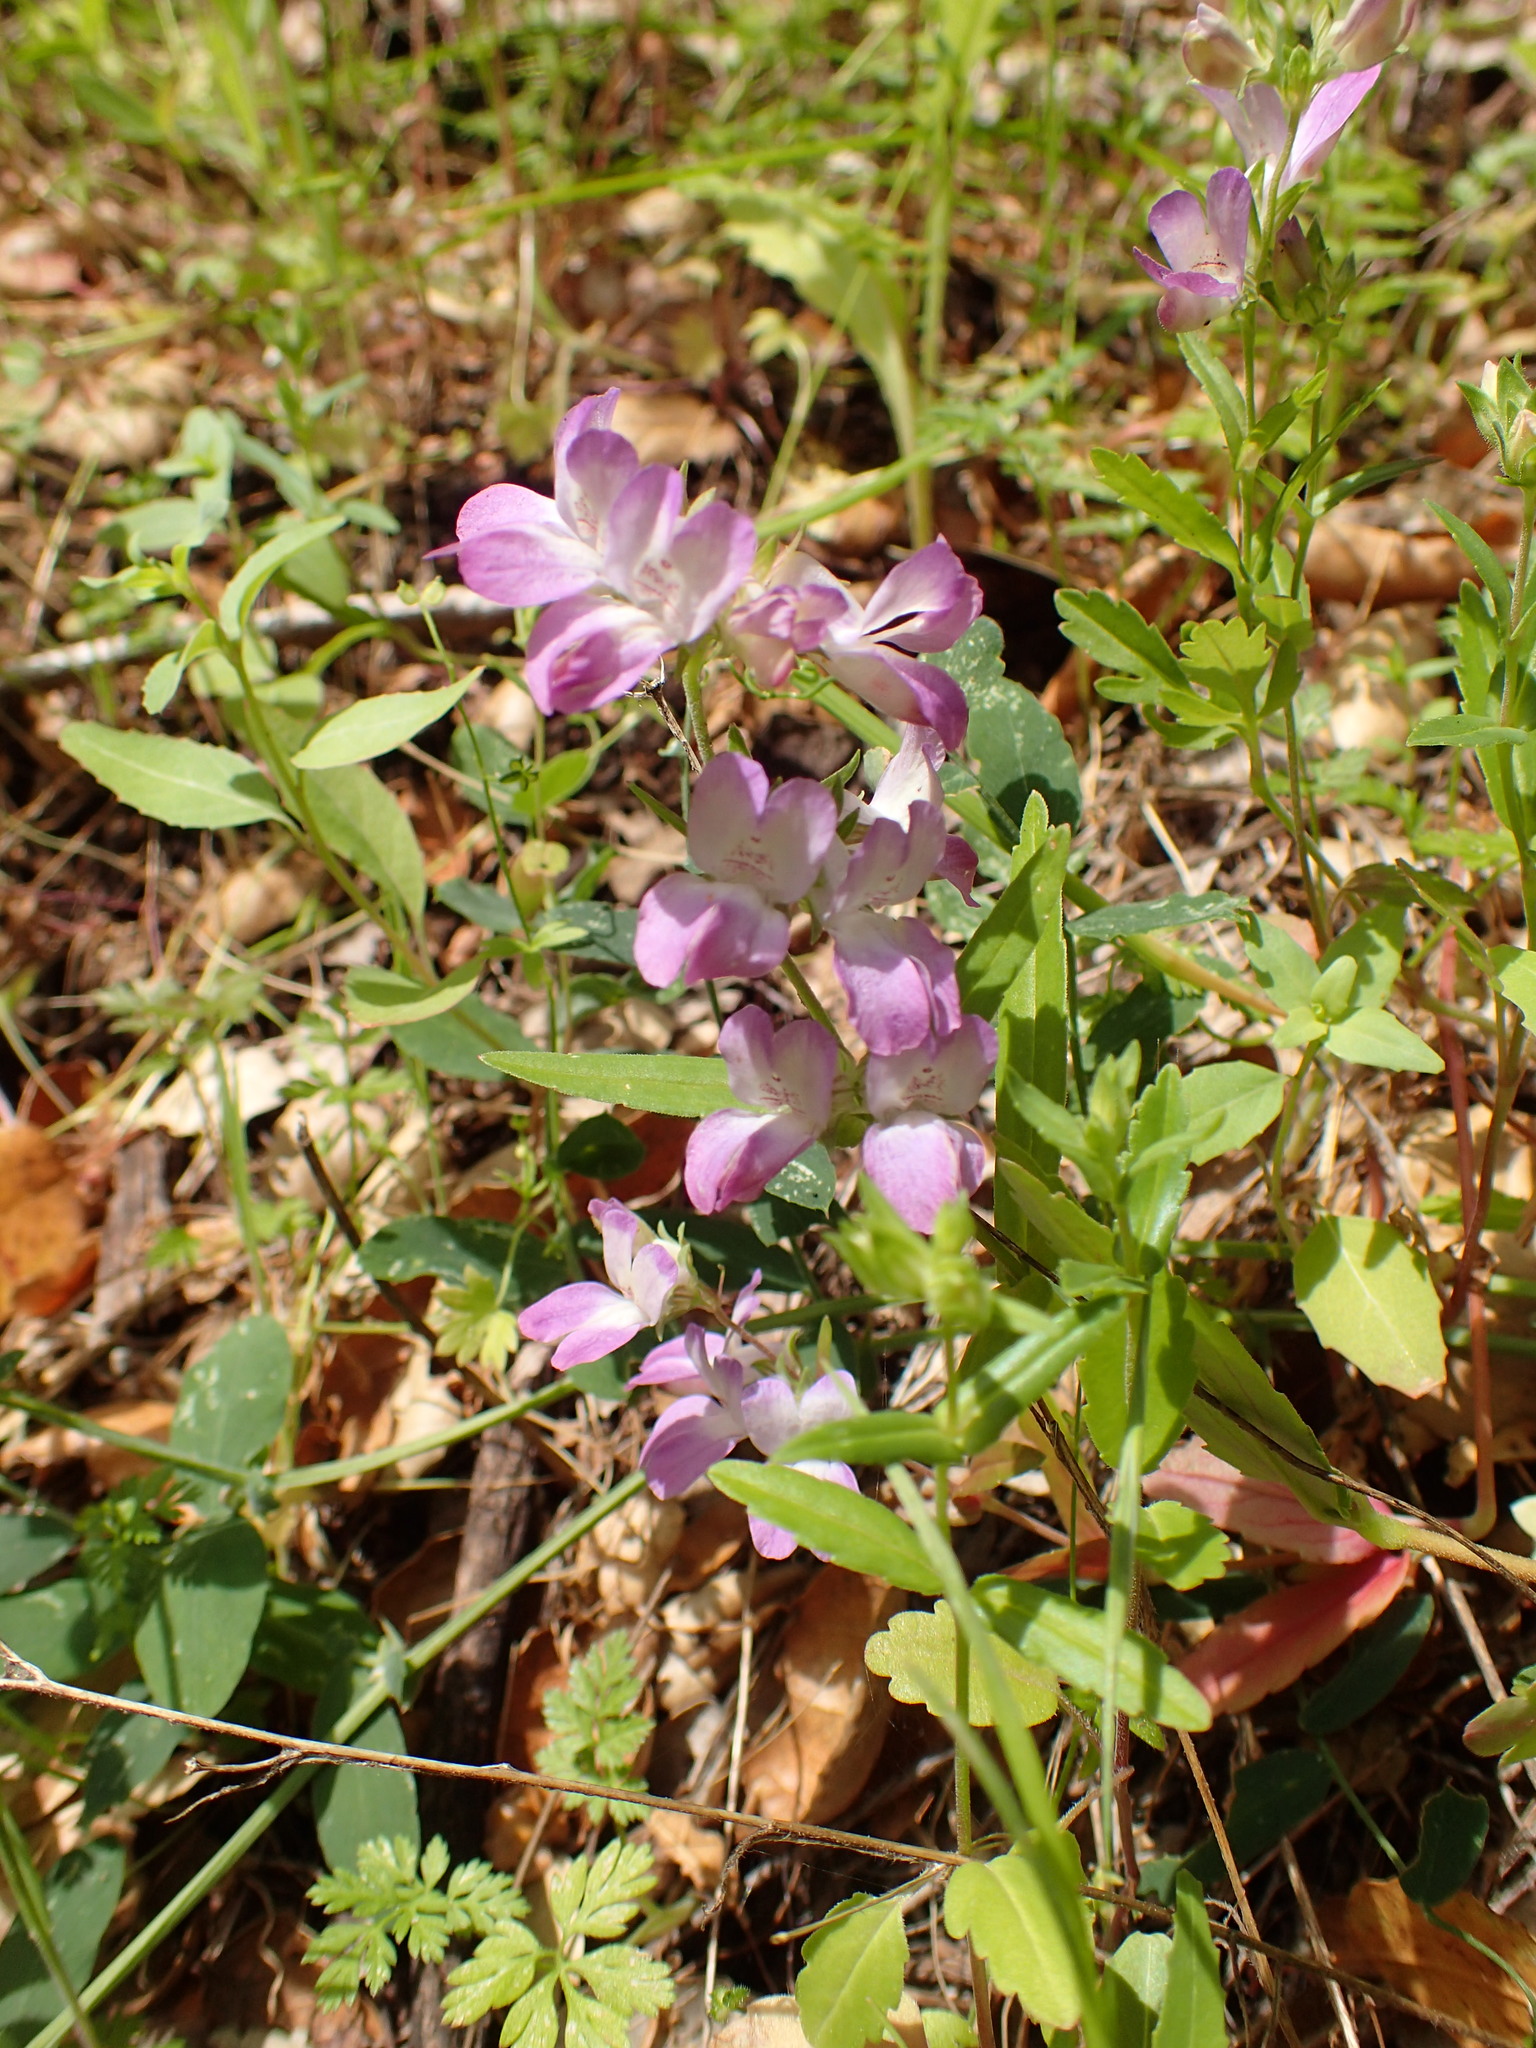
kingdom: Plantae
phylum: Tracheophyta
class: Magnoliopsida
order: Lamiales
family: Plantaginaceae
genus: Collinsia
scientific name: Collinsia heterophylla
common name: Chinese-houses
